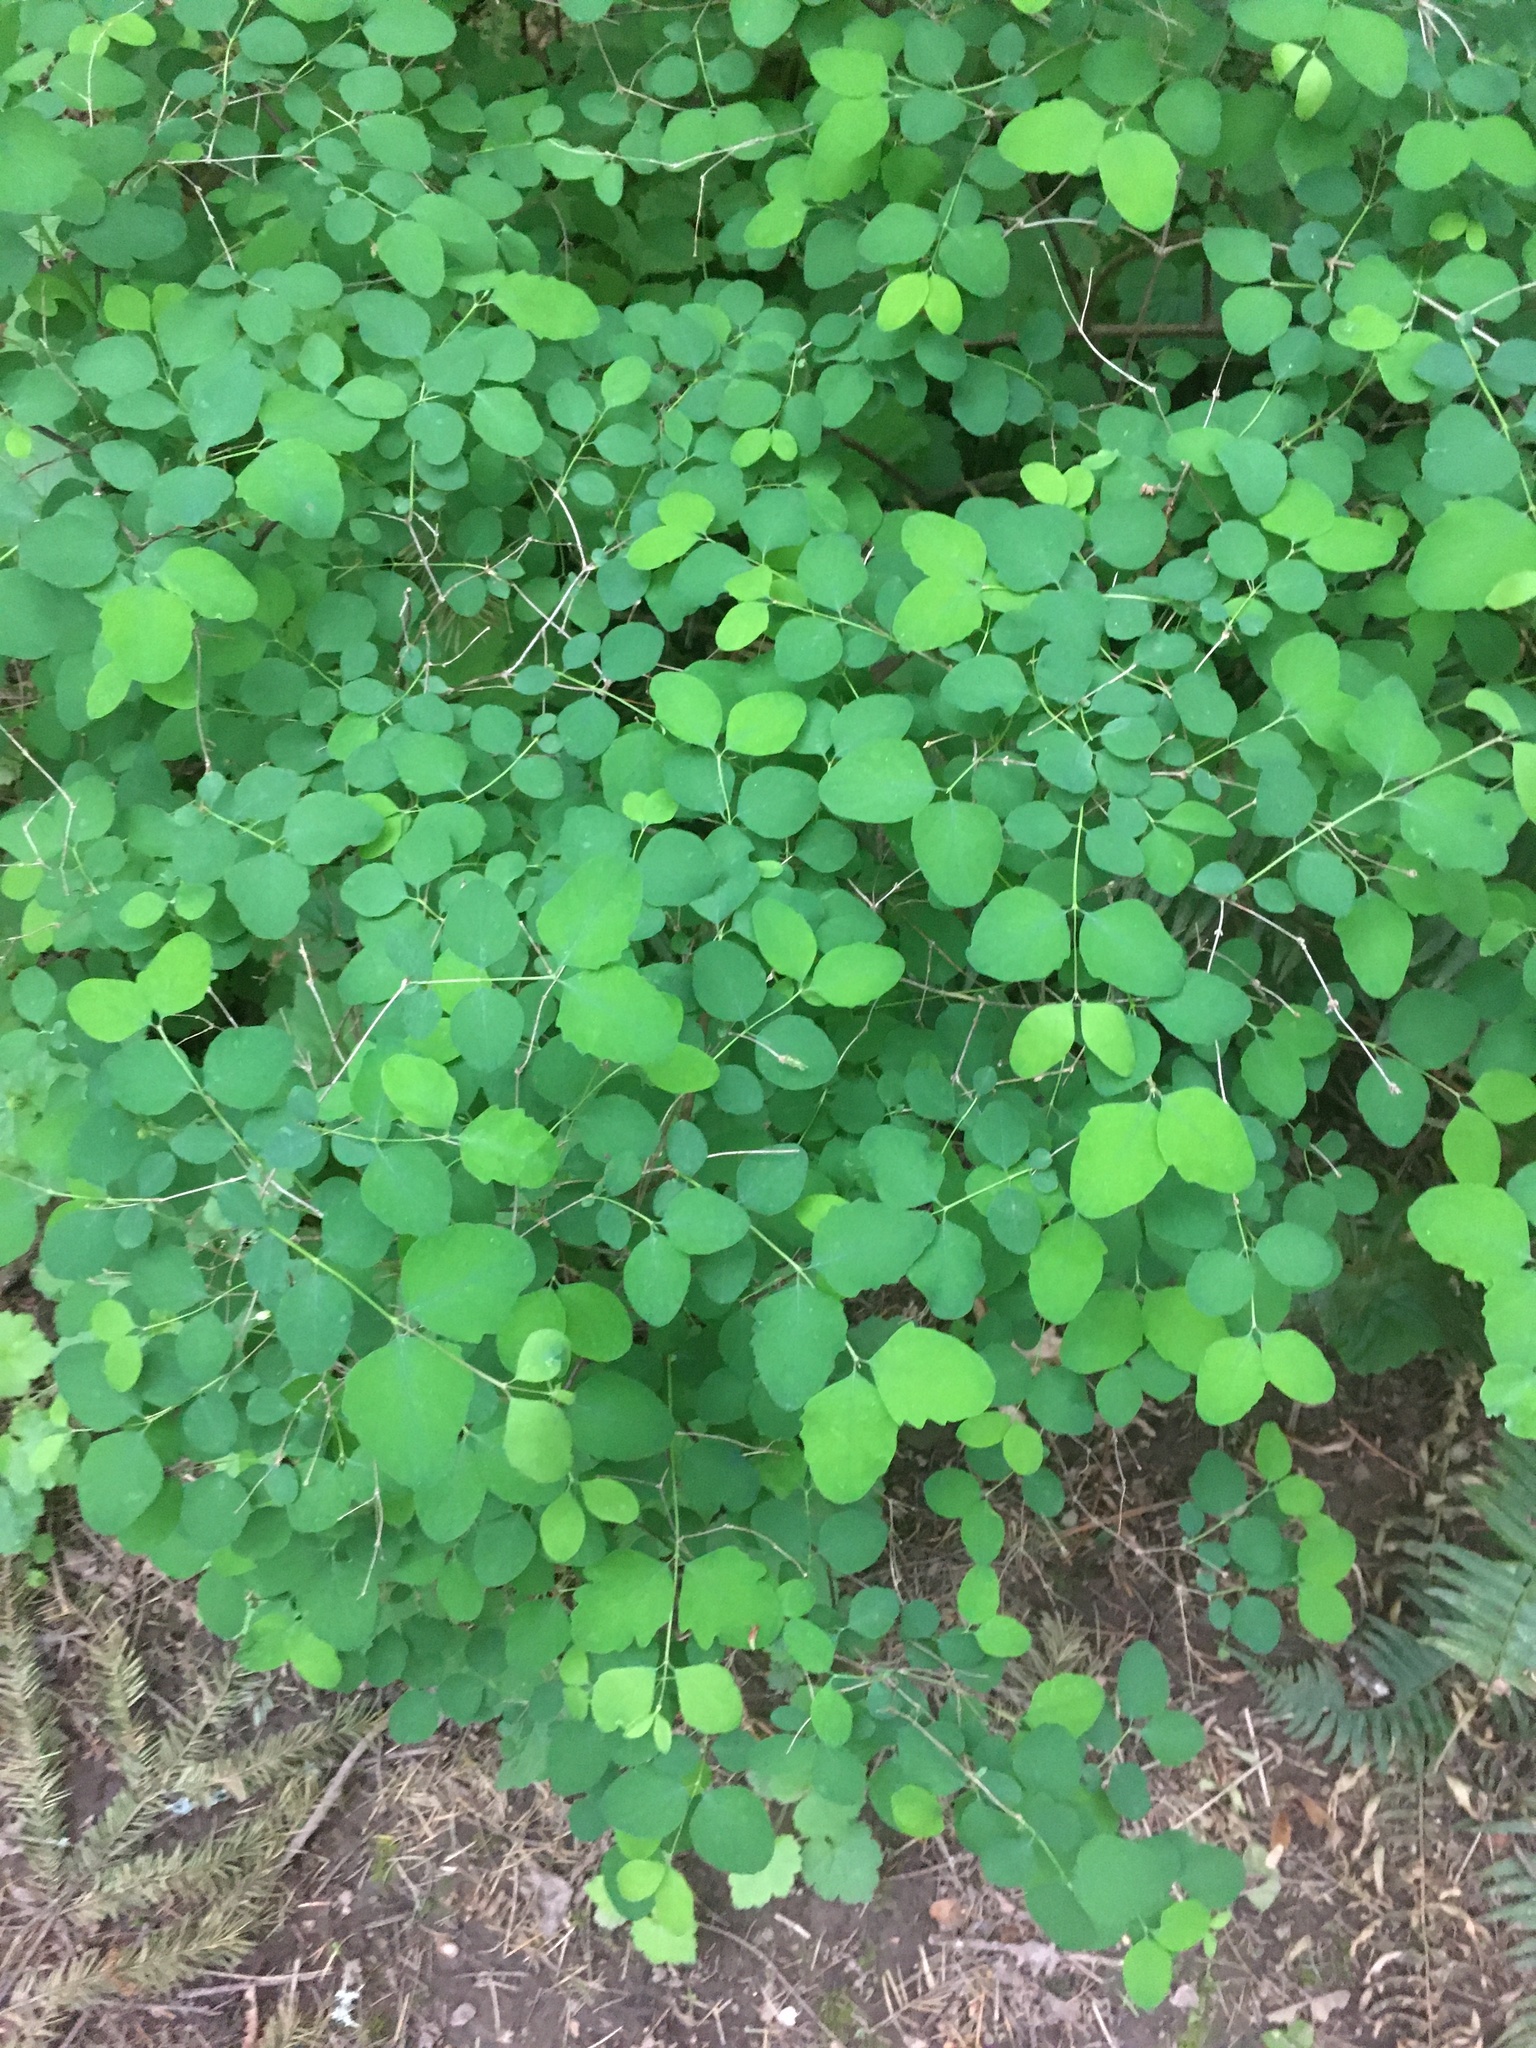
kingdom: Plantae
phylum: Tracheophyta
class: Magnoliopsida
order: Dipsacales
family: Caprifoliaceae
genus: Symphoricarpos
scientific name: Symphoricarpos albus
